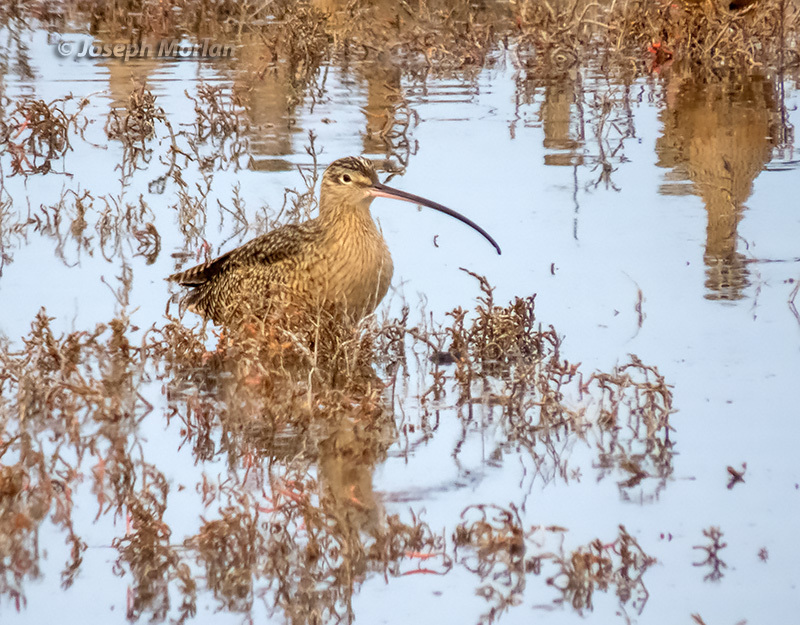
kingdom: Animalia
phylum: Chordata
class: Aves
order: Charadriiformes
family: Scolopacidae
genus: Numenius
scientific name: Numenius americanus
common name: Long-billed curlew
